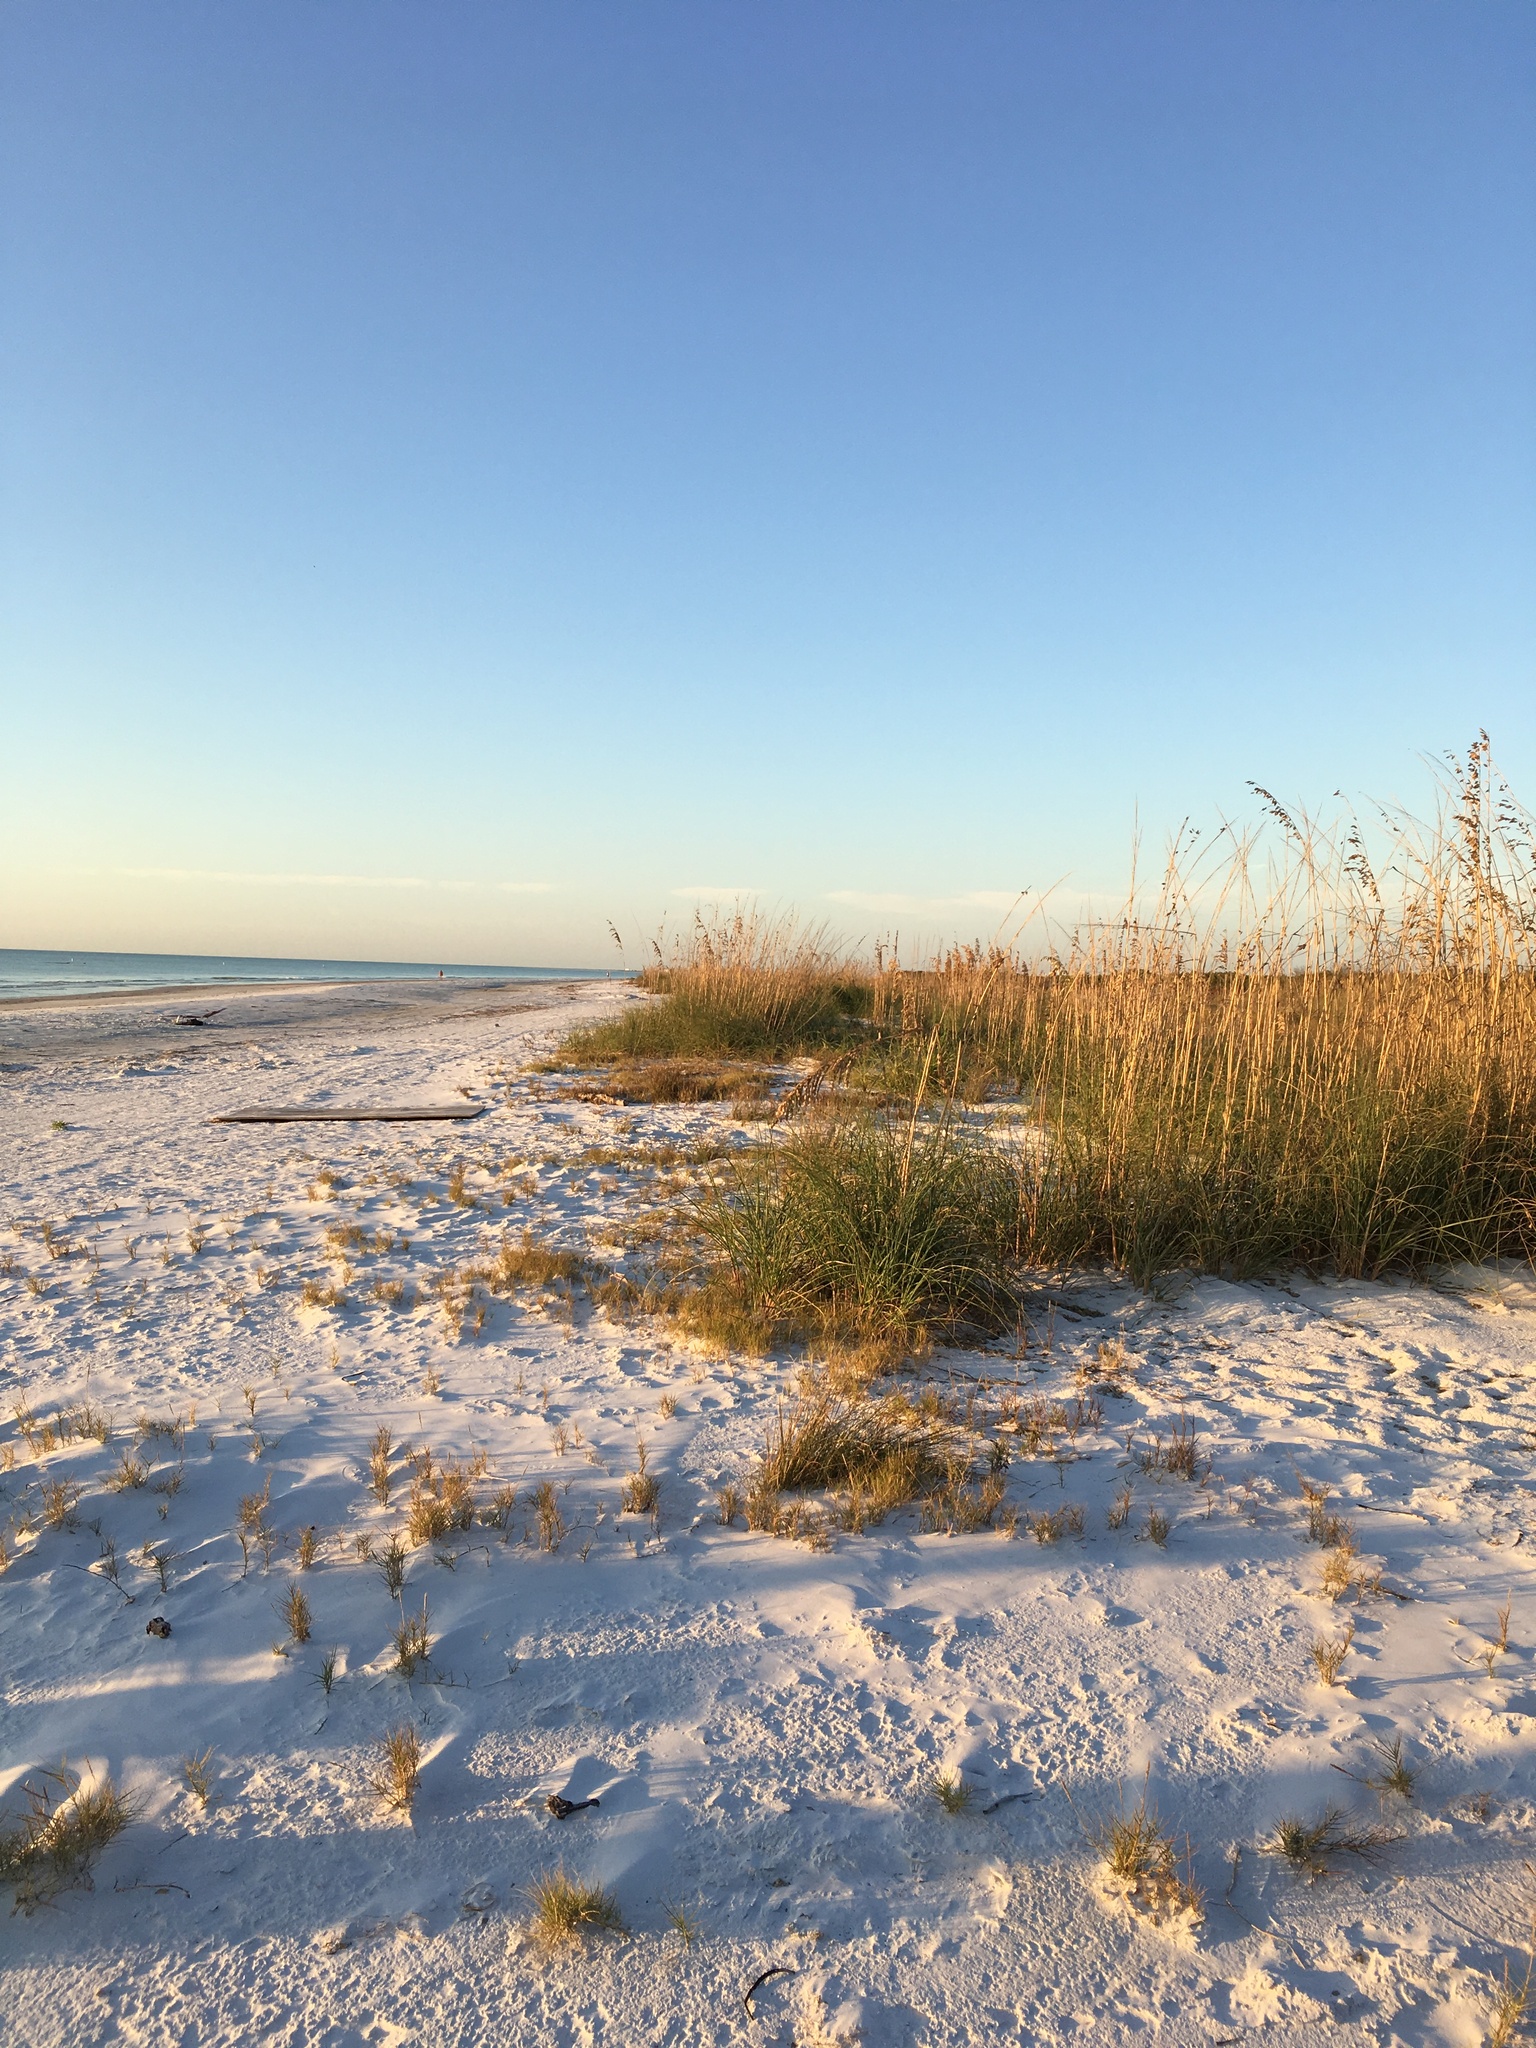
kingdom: Plantae
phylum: Tracheophyta
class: Liliopsida
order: Poales
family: Poaceae
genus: Uniola
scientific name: Uniola paniculata
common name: Seaside-oats
